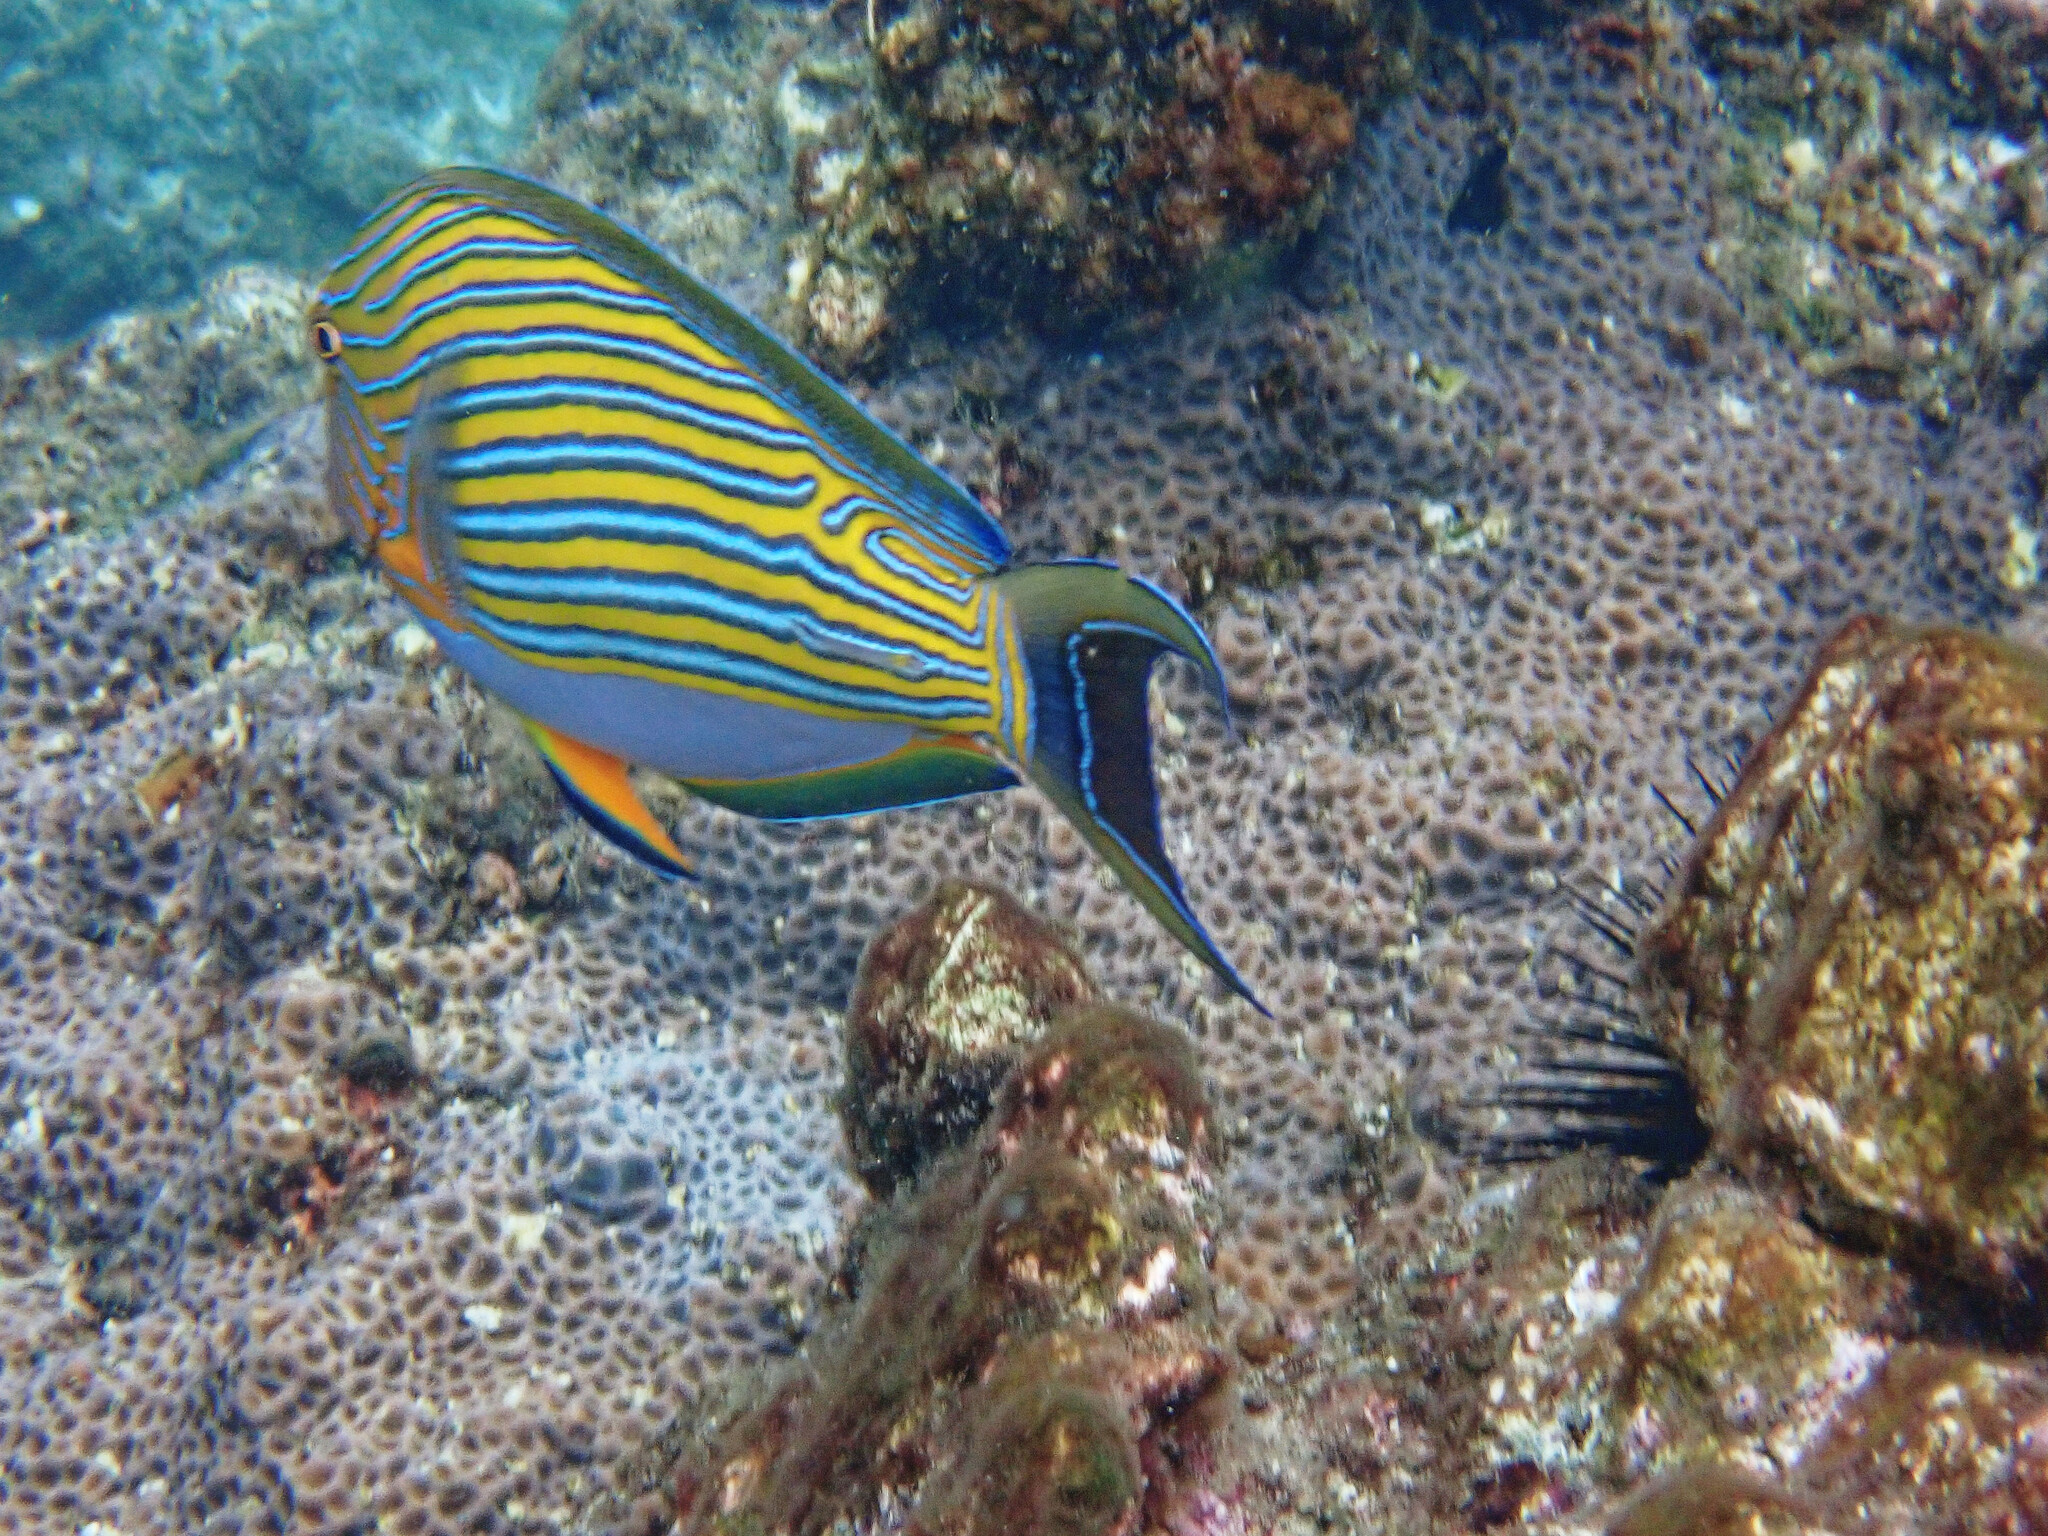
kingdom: Animalia
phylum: Chordata
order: Perciformes
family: Acanthuridae
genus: Acanthurus
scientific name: Acanthurus lineatus
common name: Striped surgeonfish
